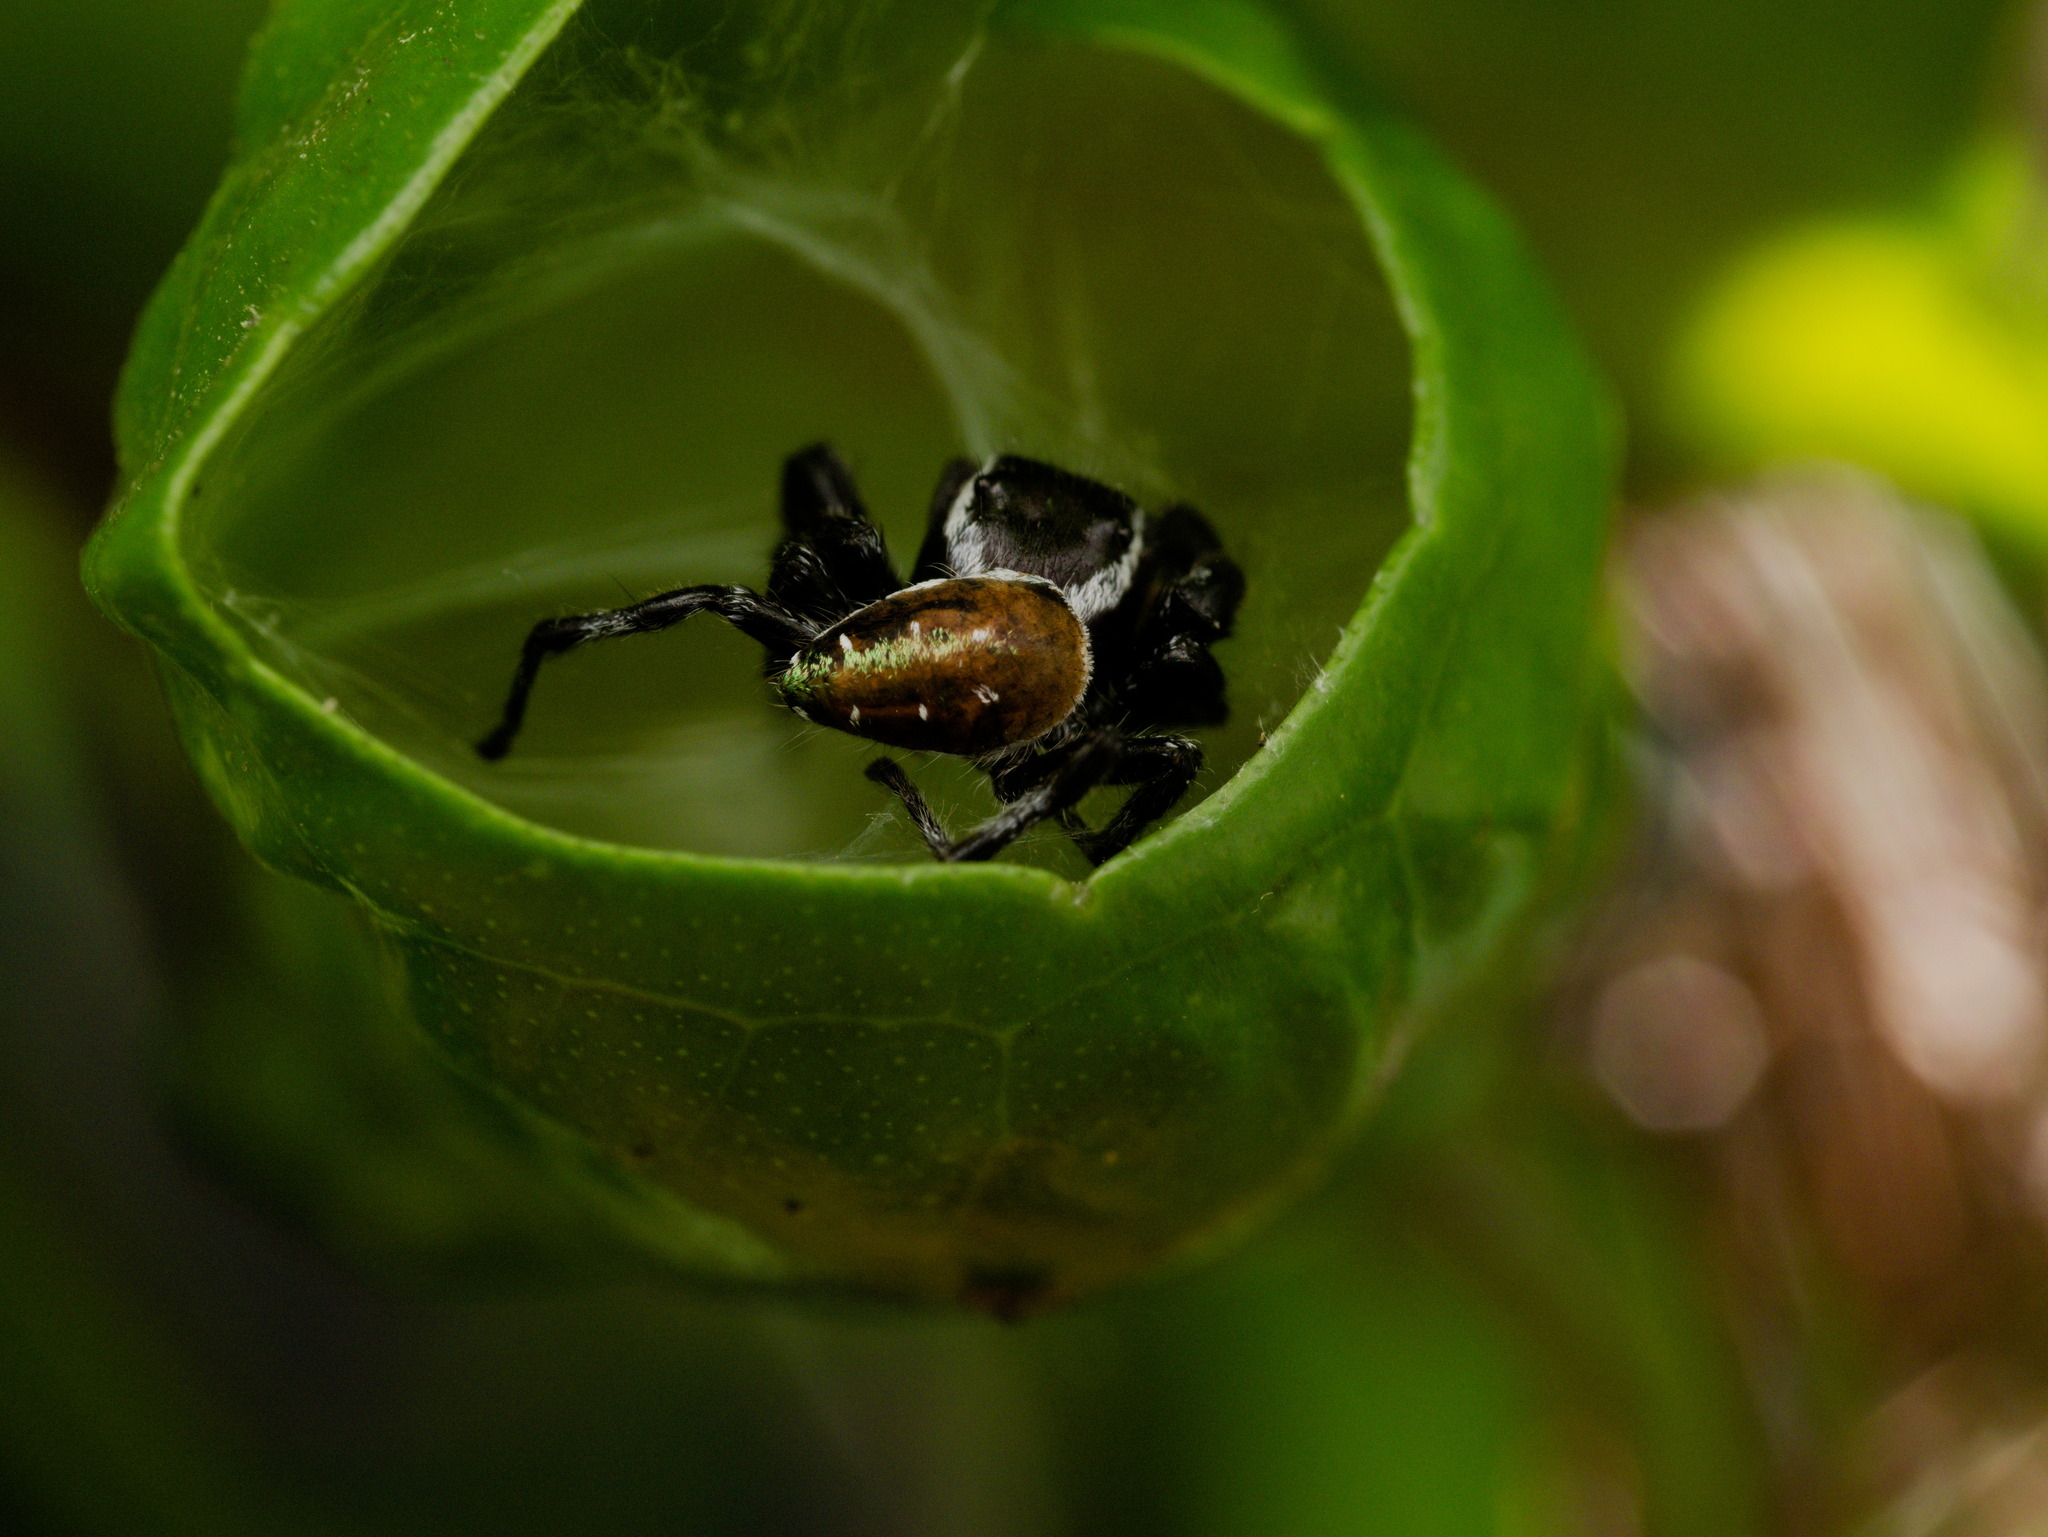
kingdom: Animalia
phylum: Arthropoda
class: Arachnida
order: Araneae
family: Salticidae
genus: Paraphidippus
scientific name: Paraphidippus aurantius
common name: Jumping spiders
